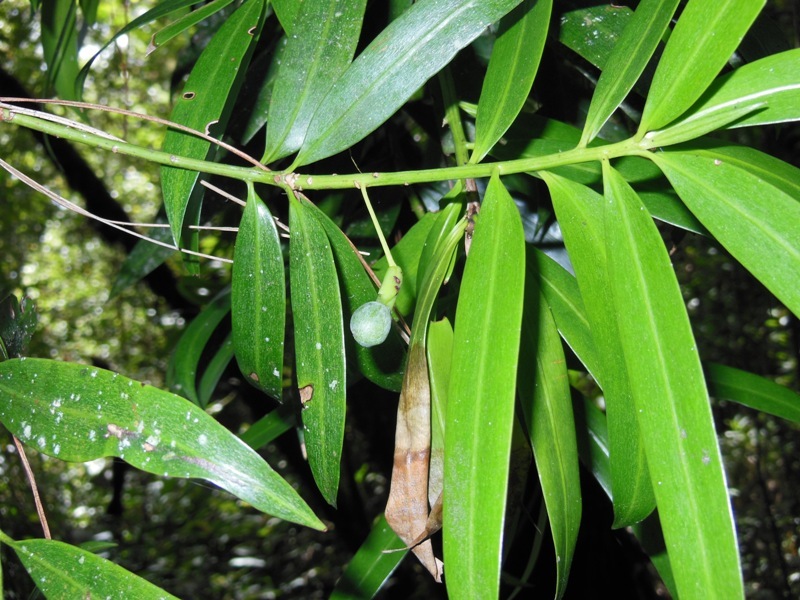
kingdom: Plantae
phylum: Tracheophyta
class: Pinopsida
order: Pinales
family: Podocarpaceae
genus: Podocarpus
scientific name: Podocarpus matudae
